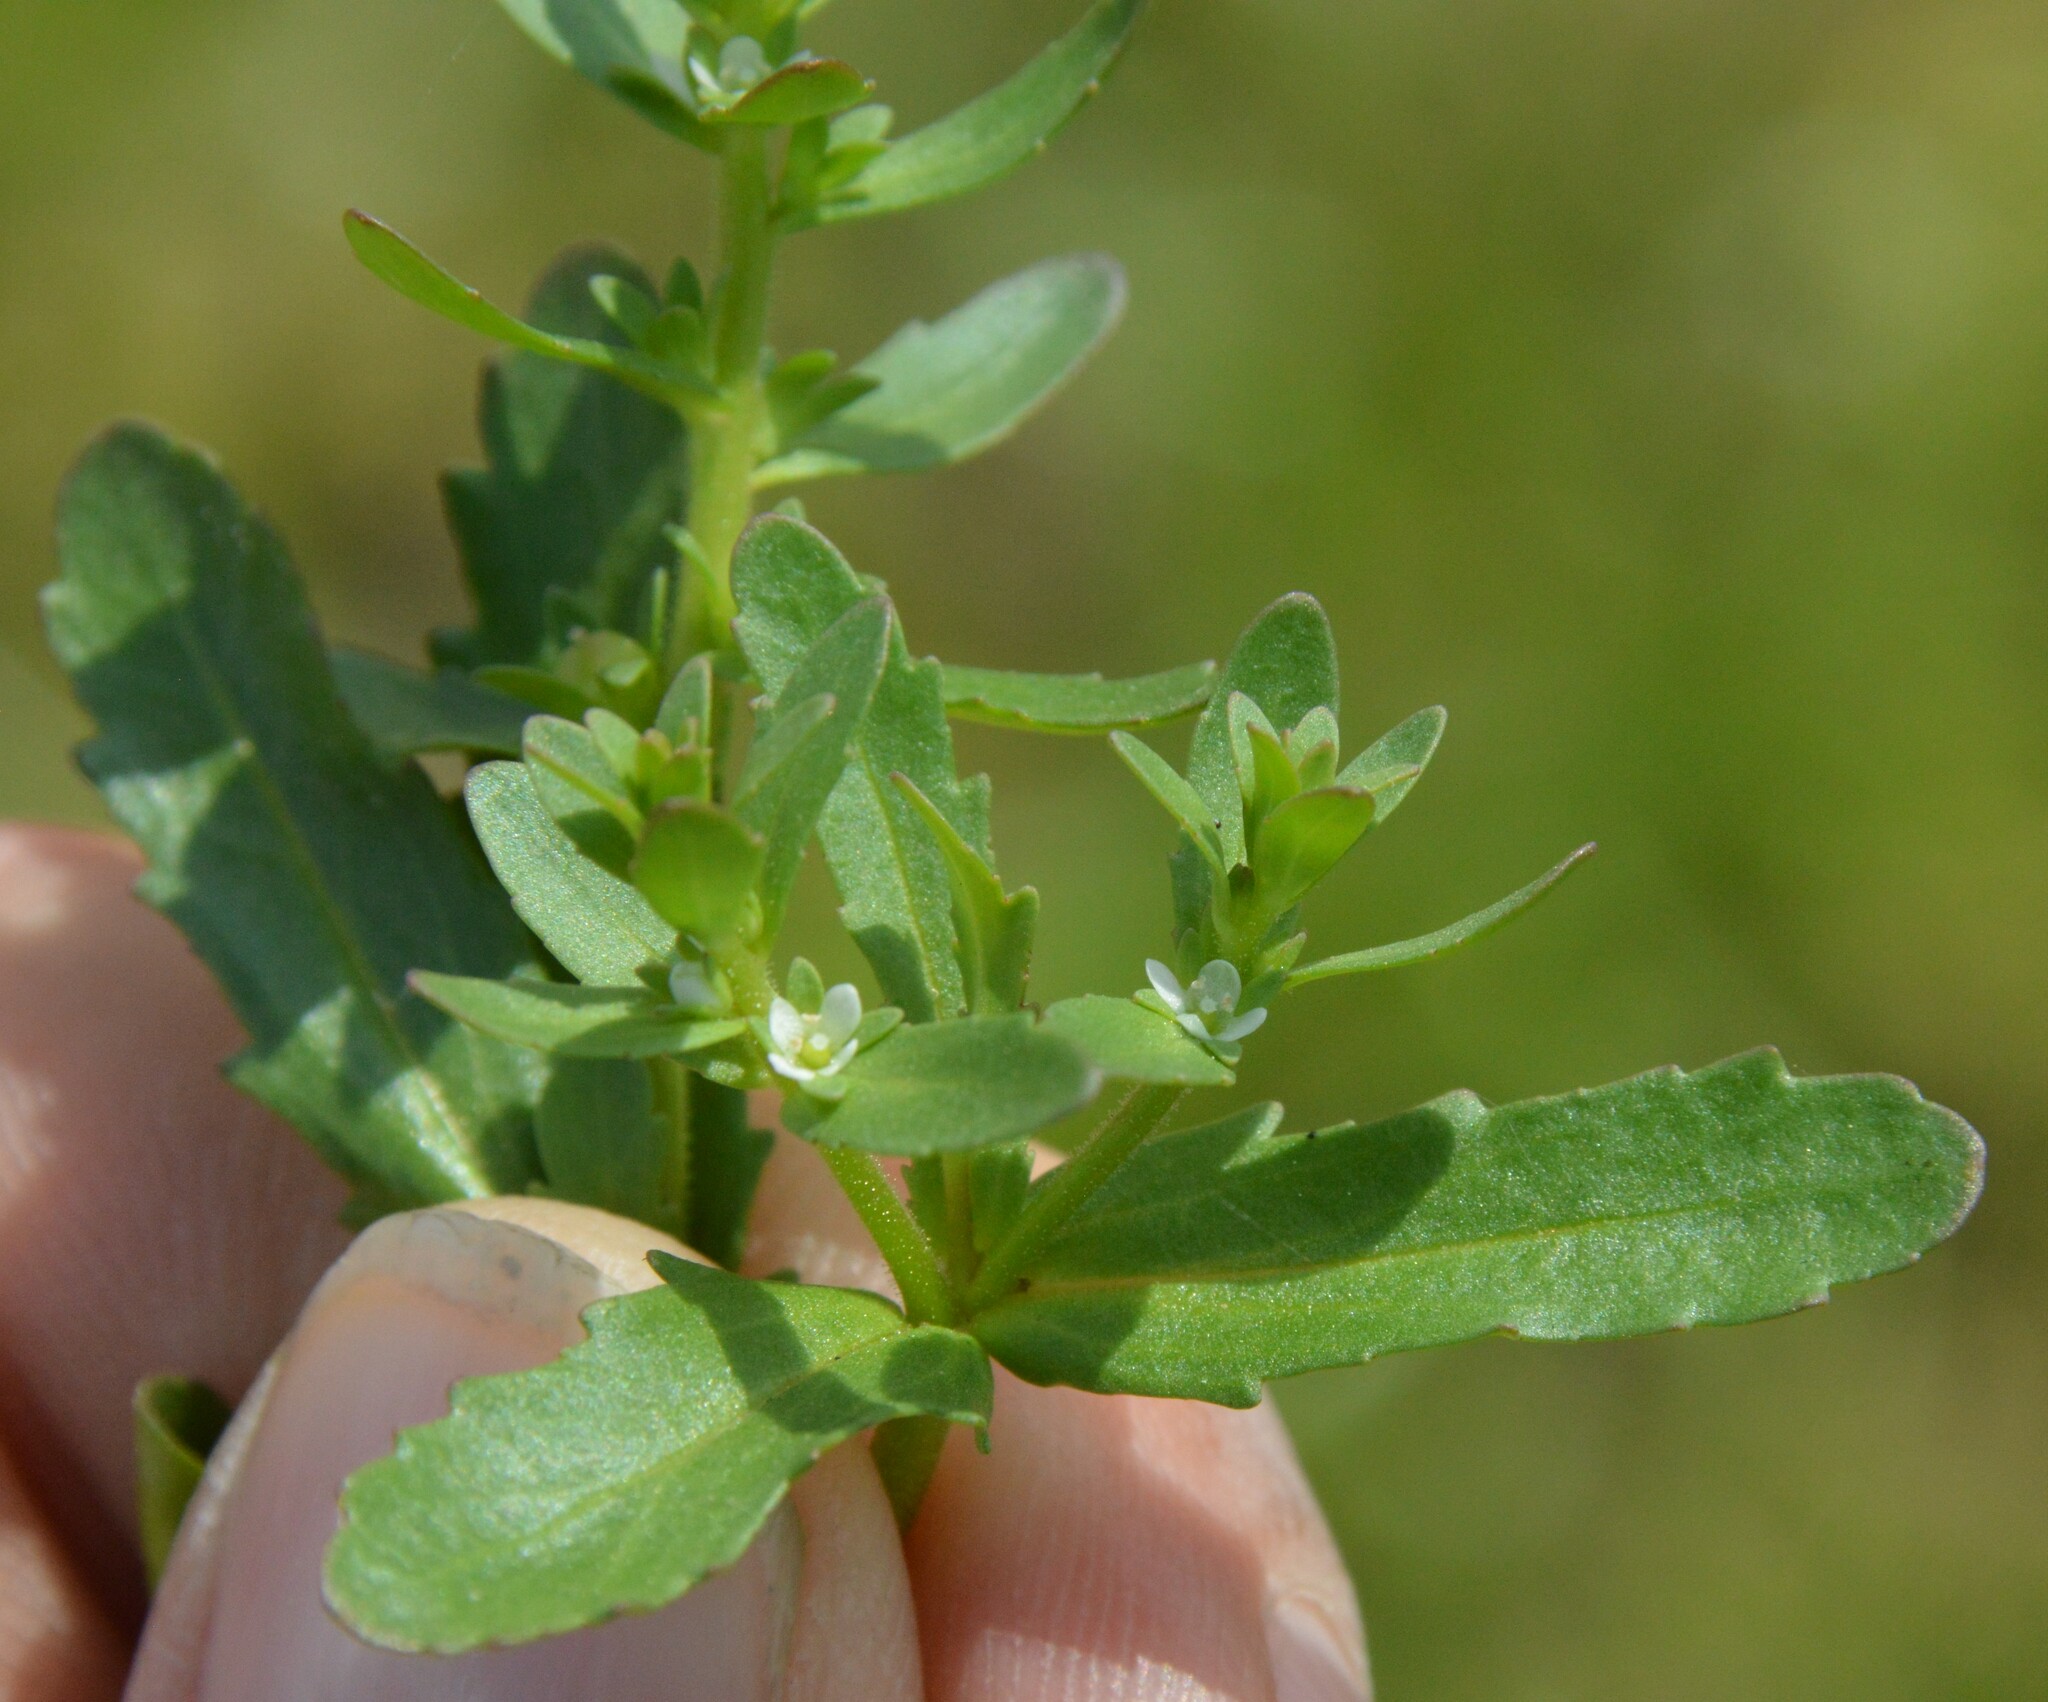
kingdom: Plantae
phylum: Tracheophyta
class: Magnoliopsida
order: Lamiales
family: Plantaginaceae
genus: Veronica
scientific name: Veronica peregrina
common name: Neckweed
